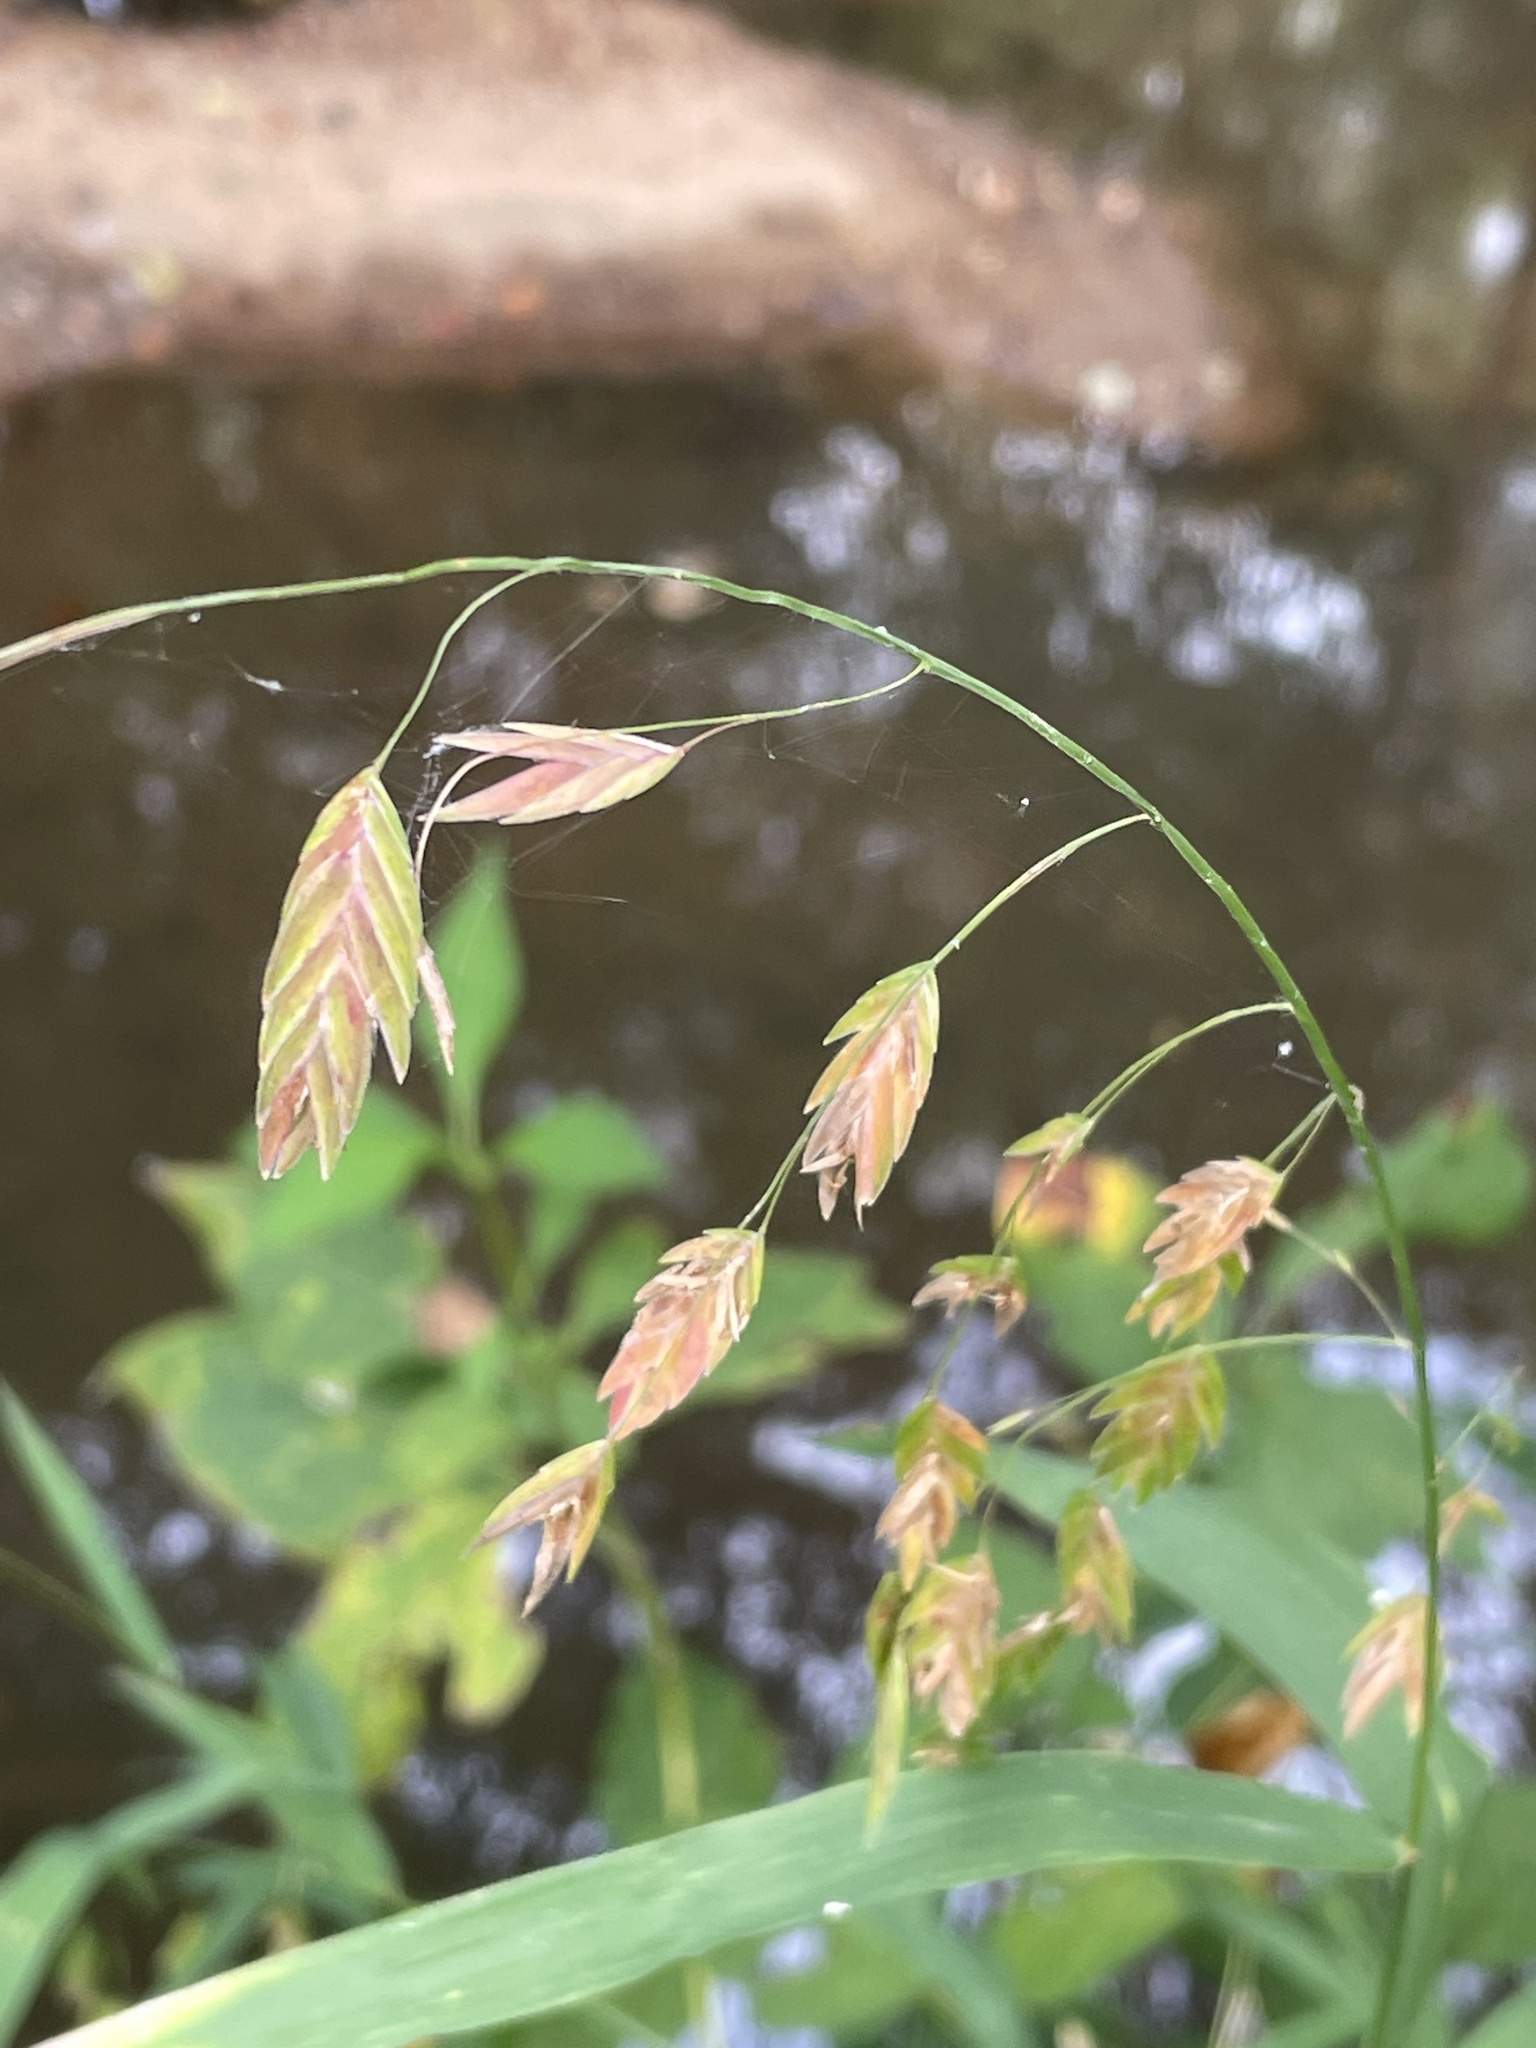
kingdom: Plantae
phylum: Tracheophyta
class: Liliopsida
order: Poales
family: Poaceae
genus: Chasmanthium
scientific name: Chasmanthium latifolium
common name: Broad-leaved chasmanthium
